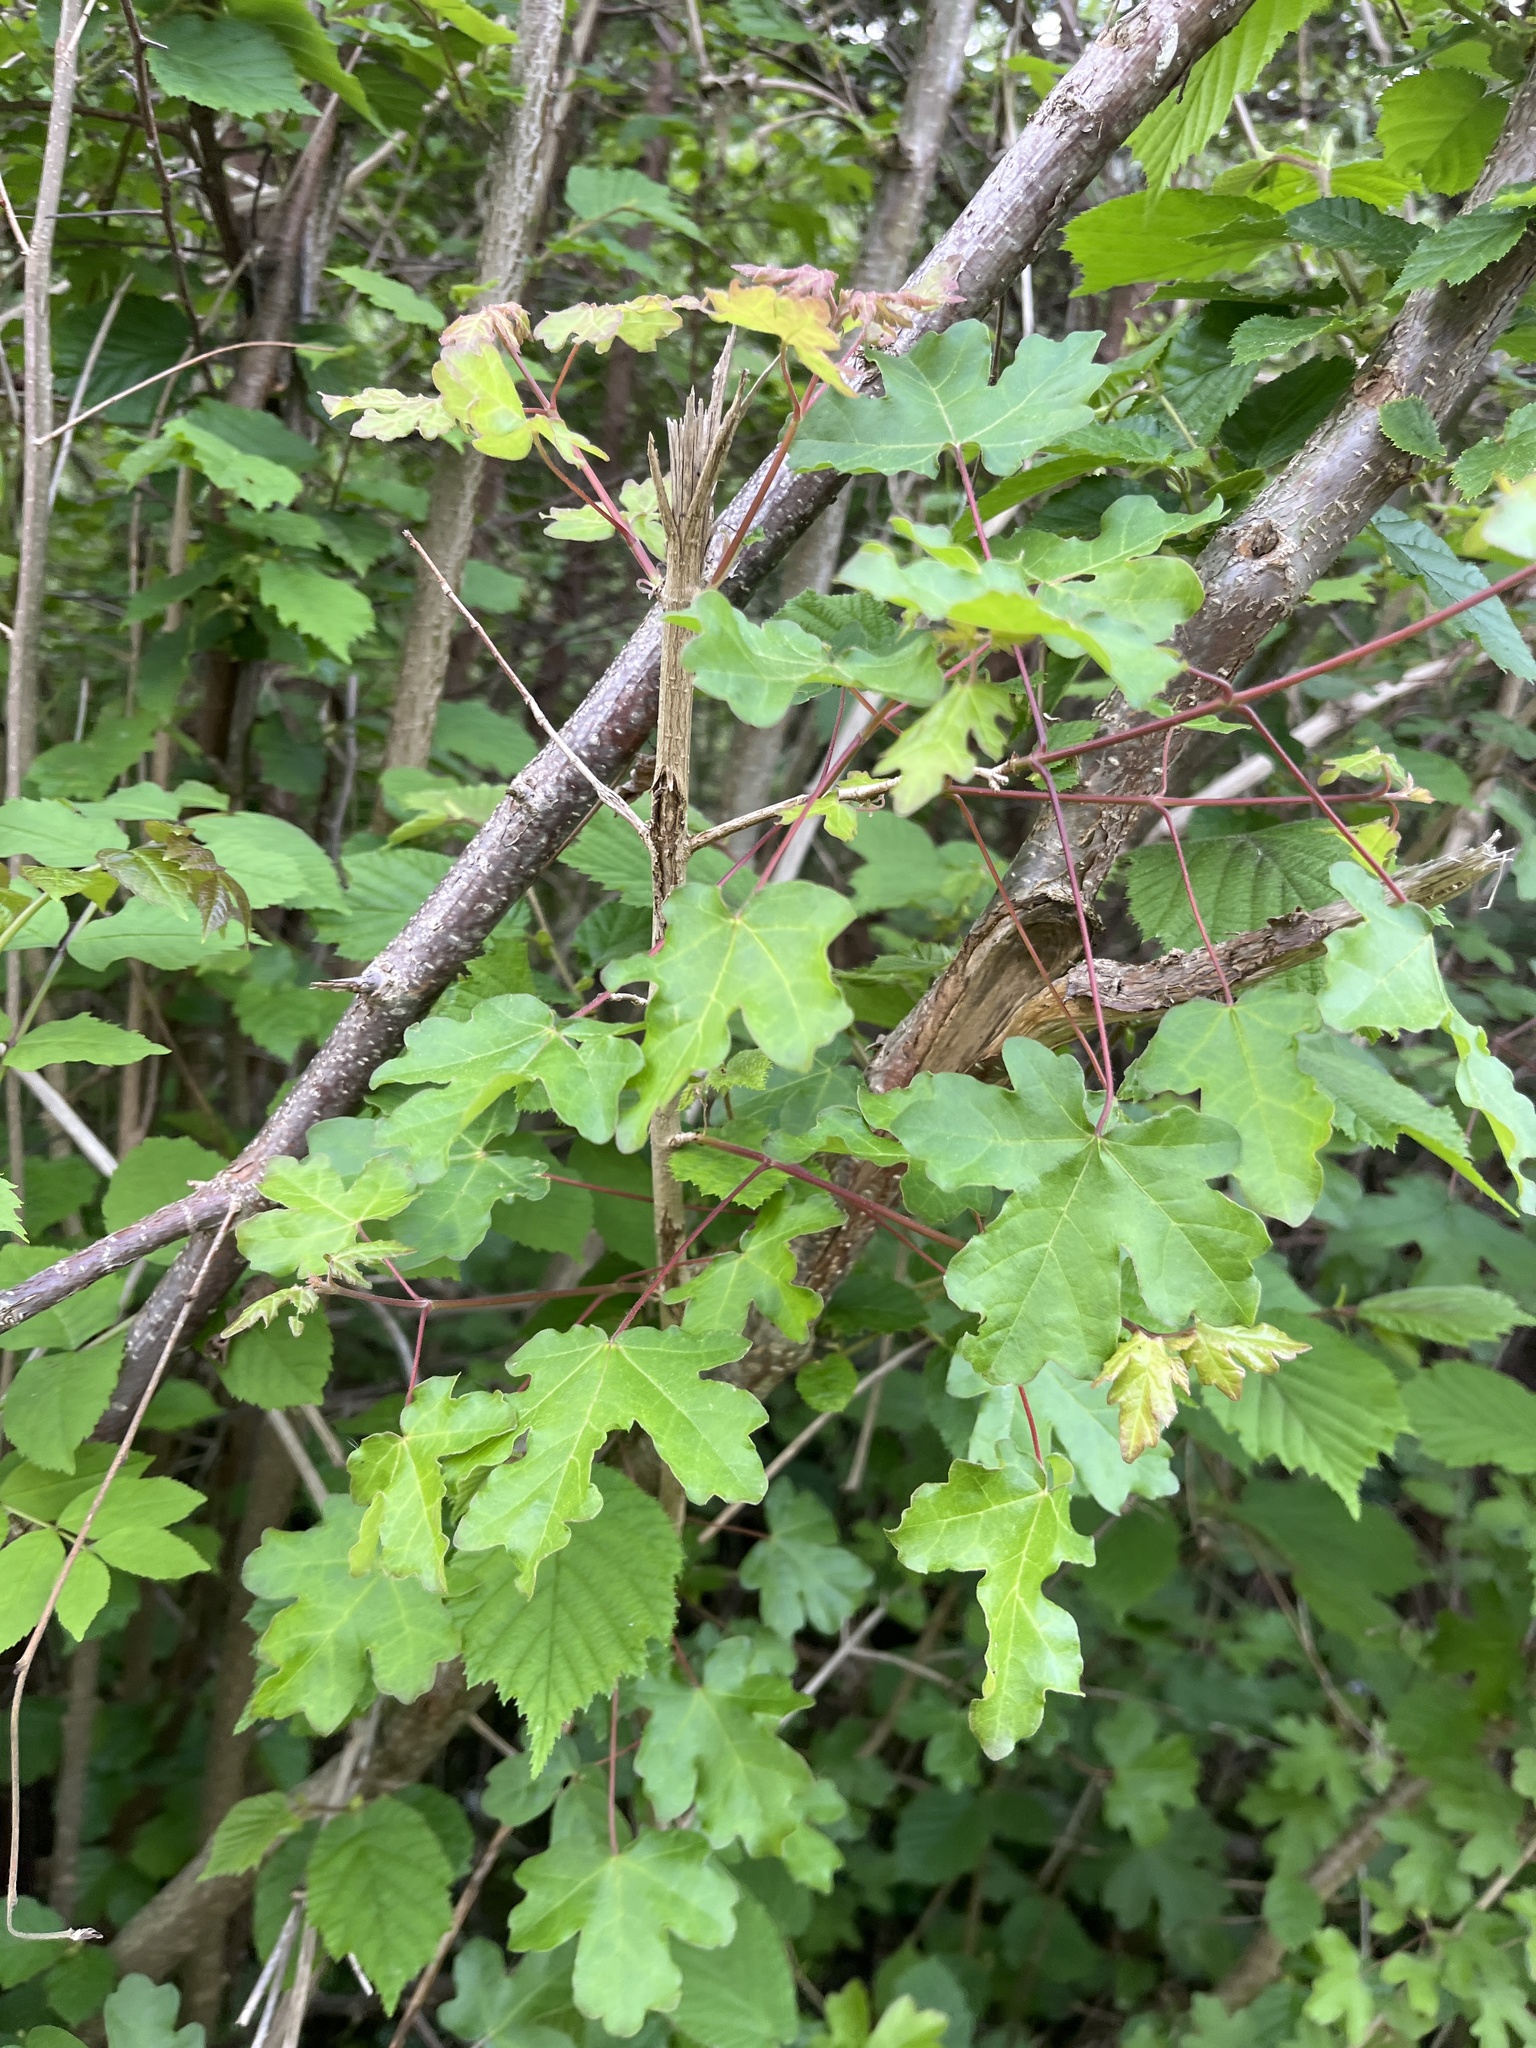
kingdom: Plantae
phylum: Tracheophyta
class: Magnoliopsida
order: Sapindales
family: Sapindaceae
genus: Acer
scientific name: Acer campestre
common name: Field maple
